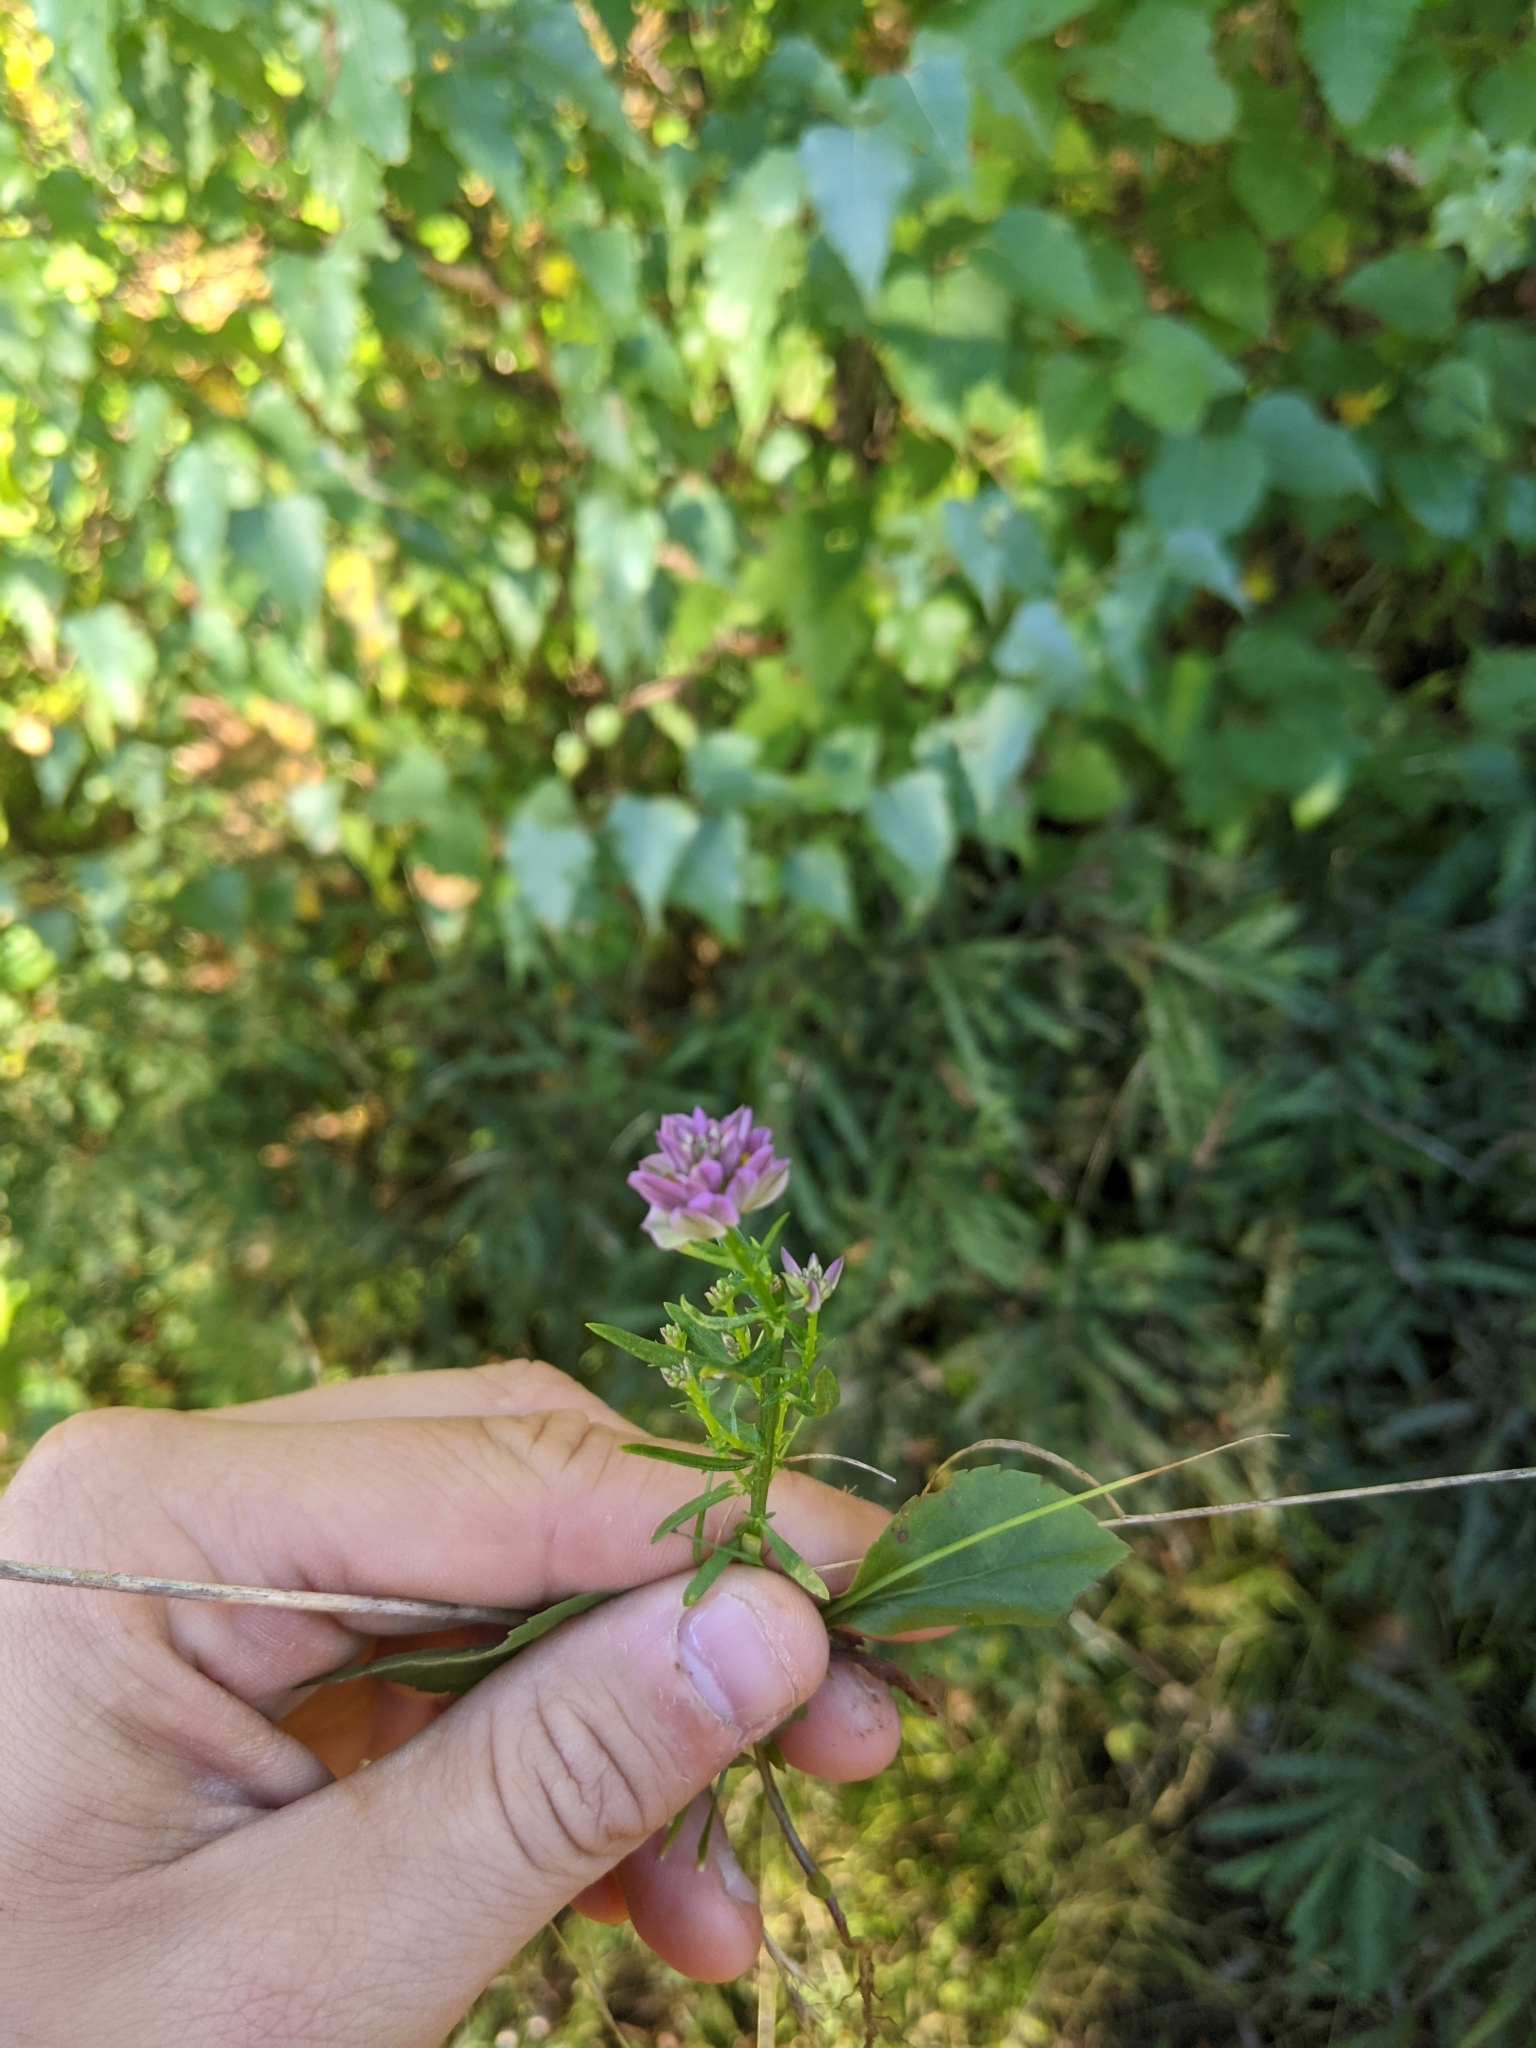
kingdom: Plantae
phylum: Tracheophyta
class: Magnoliopsida
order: Fabales
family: Polygalaceae
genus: Polygala
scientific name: Polygala sanguinea
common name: Blood milkwort
